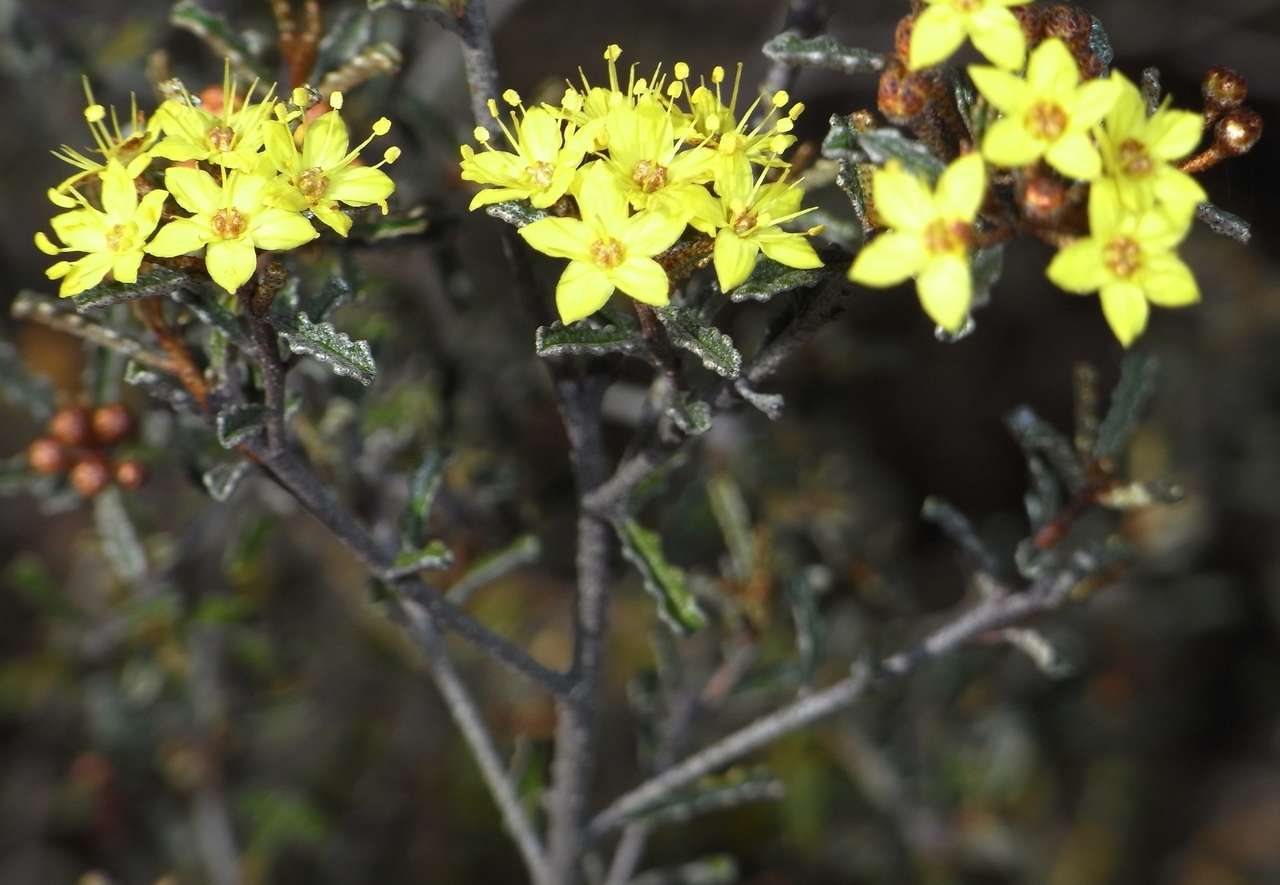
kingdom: Plantae
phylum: Tracheophyta
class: Magnoliopsida
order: Sapindales
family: Rutaceae
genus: Phebalium
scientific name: Phebalium bullatum
